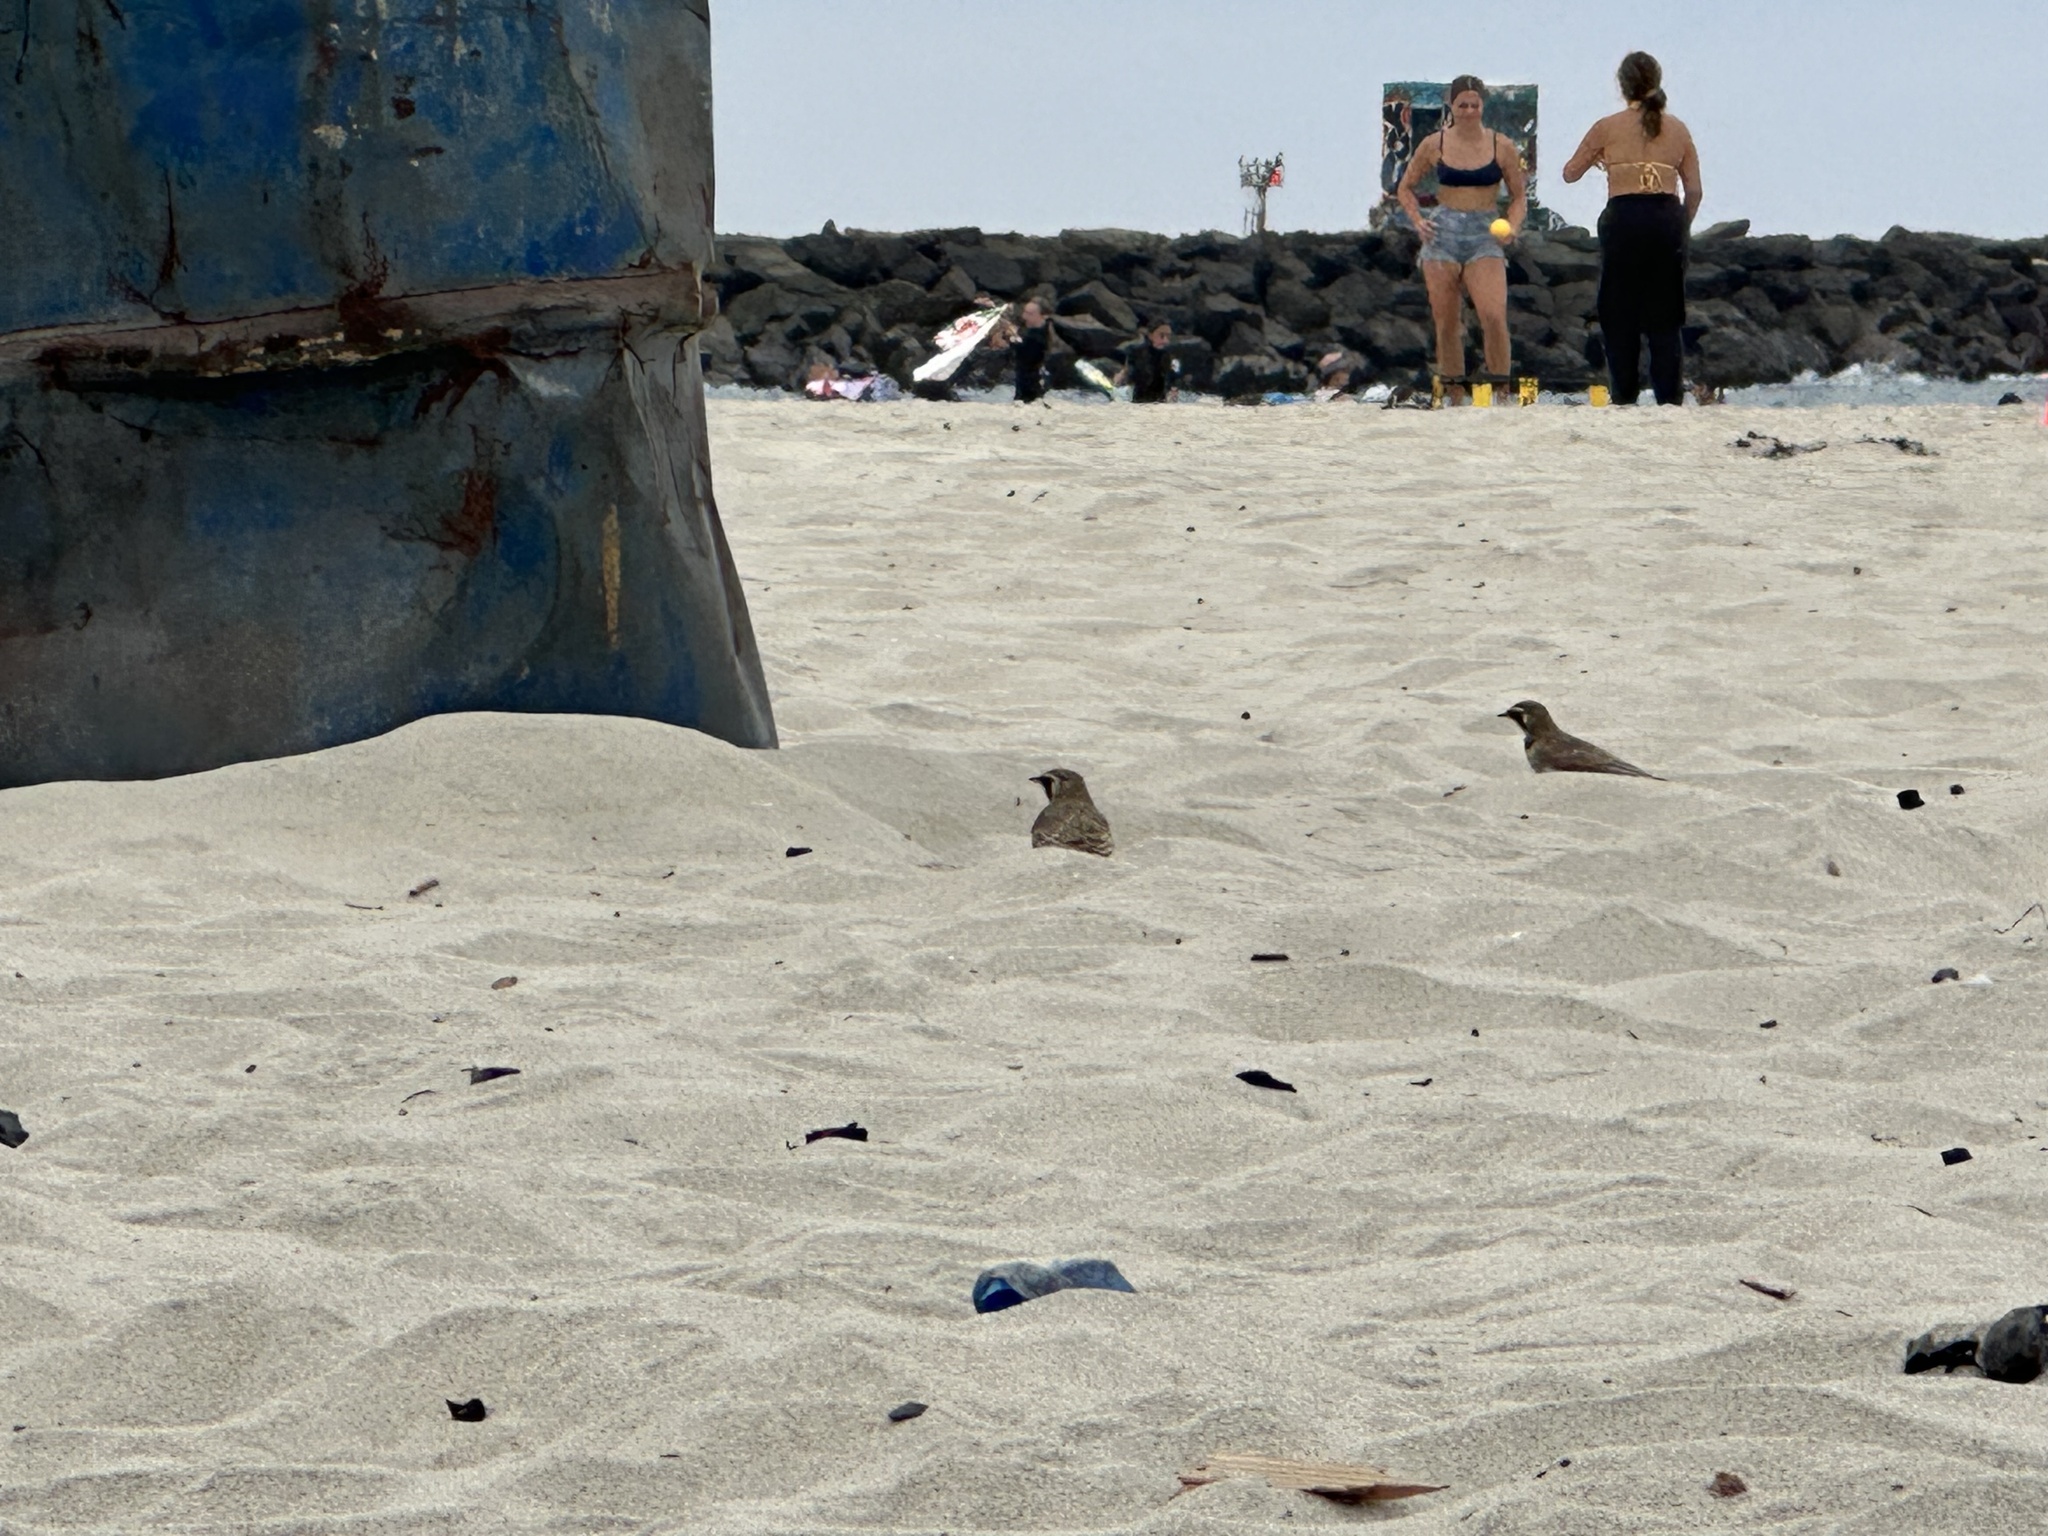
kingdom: Animalia
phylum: Chordata
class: Aves
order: Passeriformes
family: Alaudidae
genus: Eremophila
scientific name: Eremophila alpestris
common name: Horned lark
